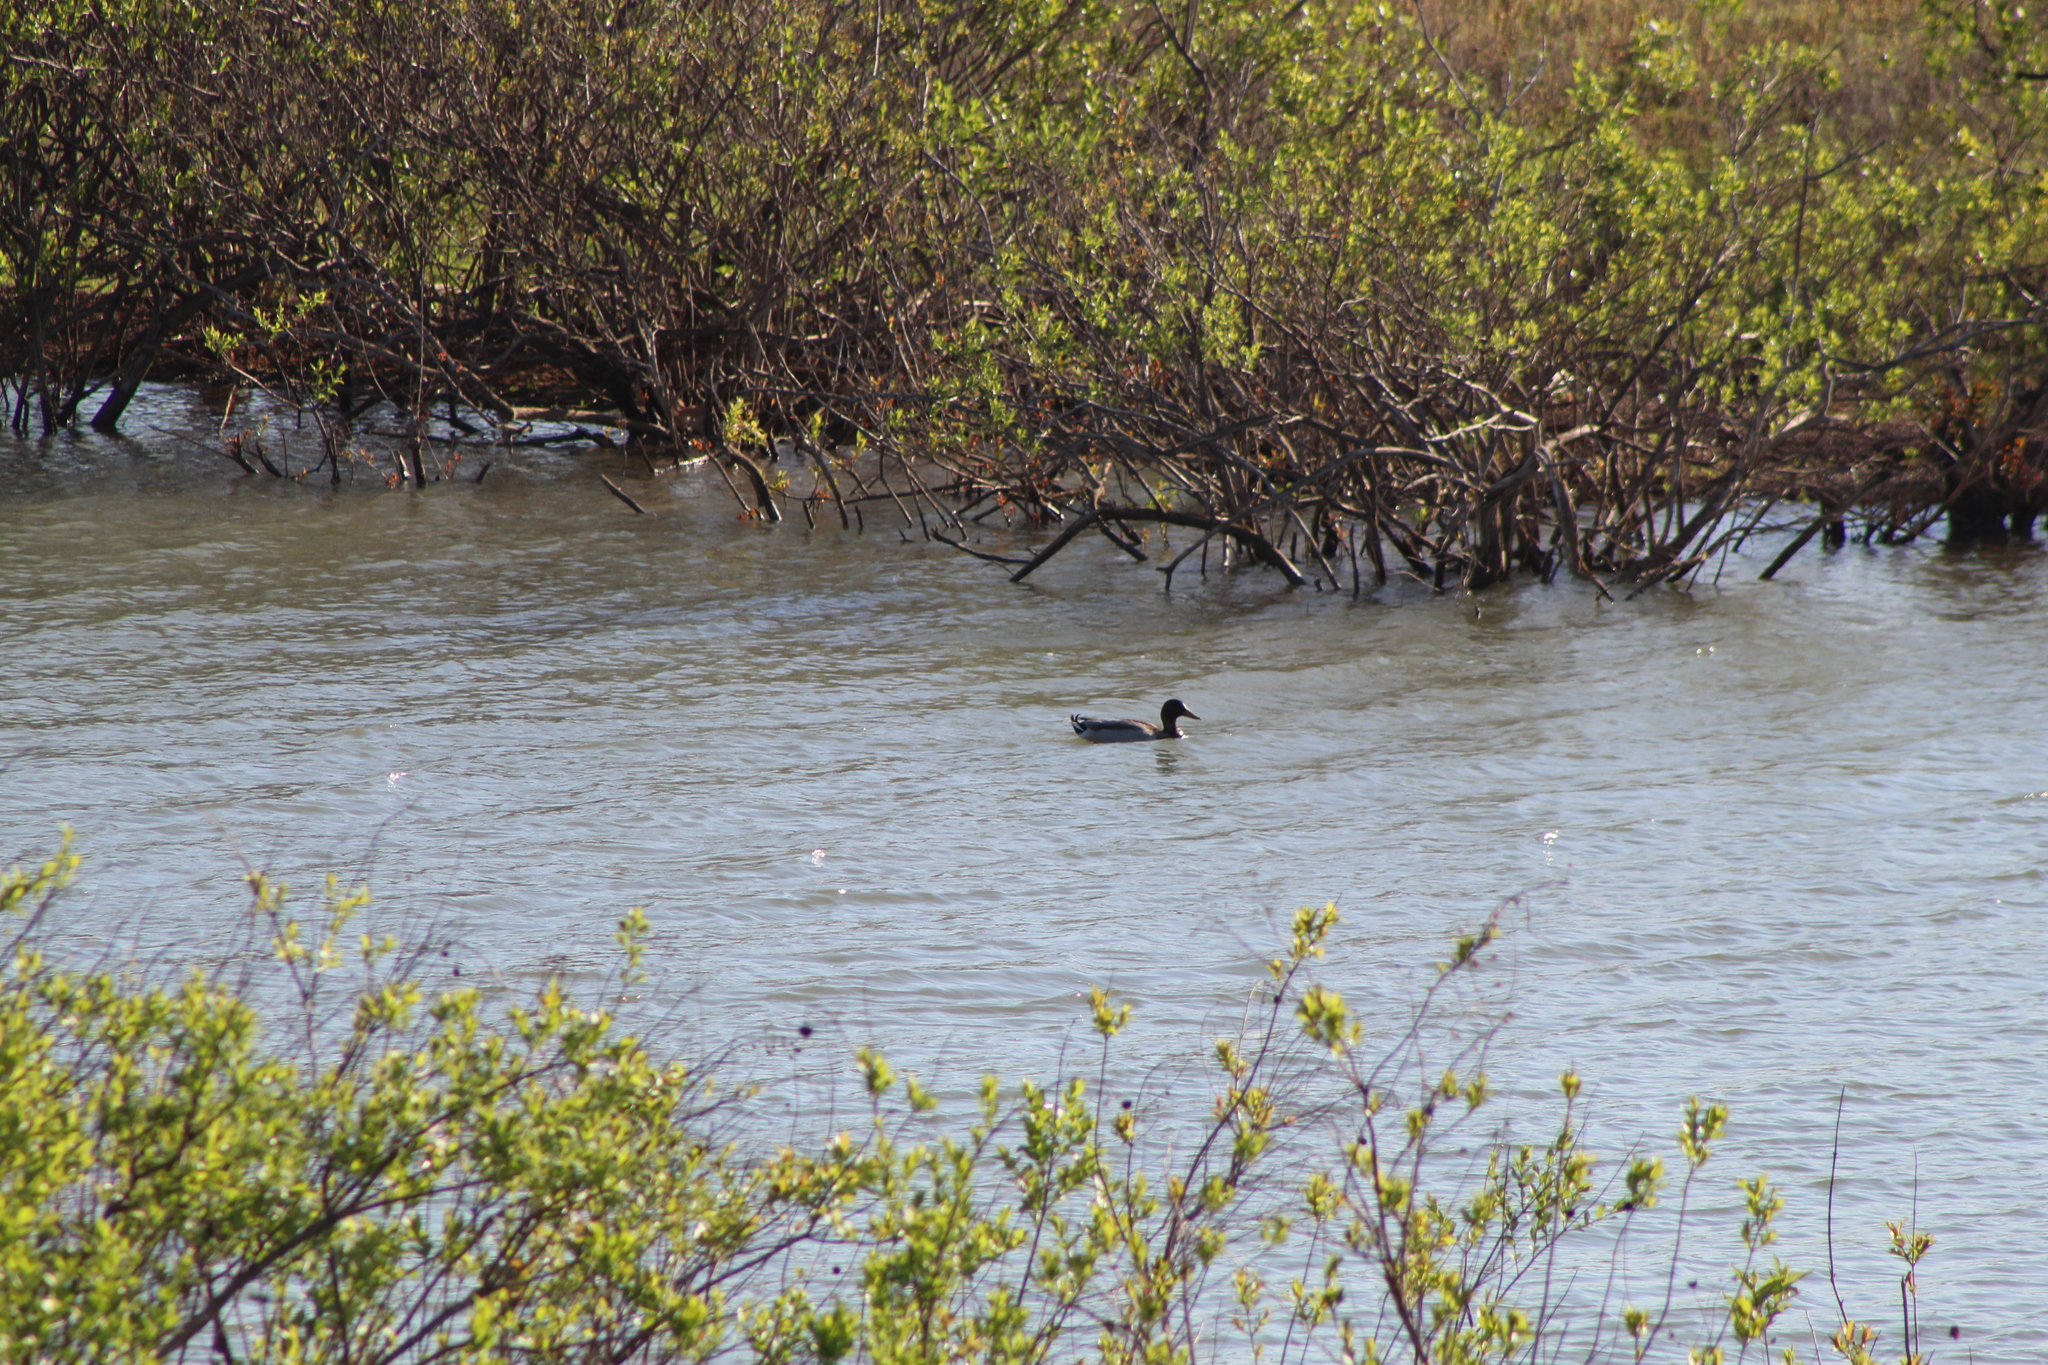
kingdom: Animalia
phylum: Chordata
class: Aves
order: Anseriformes
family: Anatidae
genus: Anas
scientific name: Anas platyrhynchos
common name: Mallard
